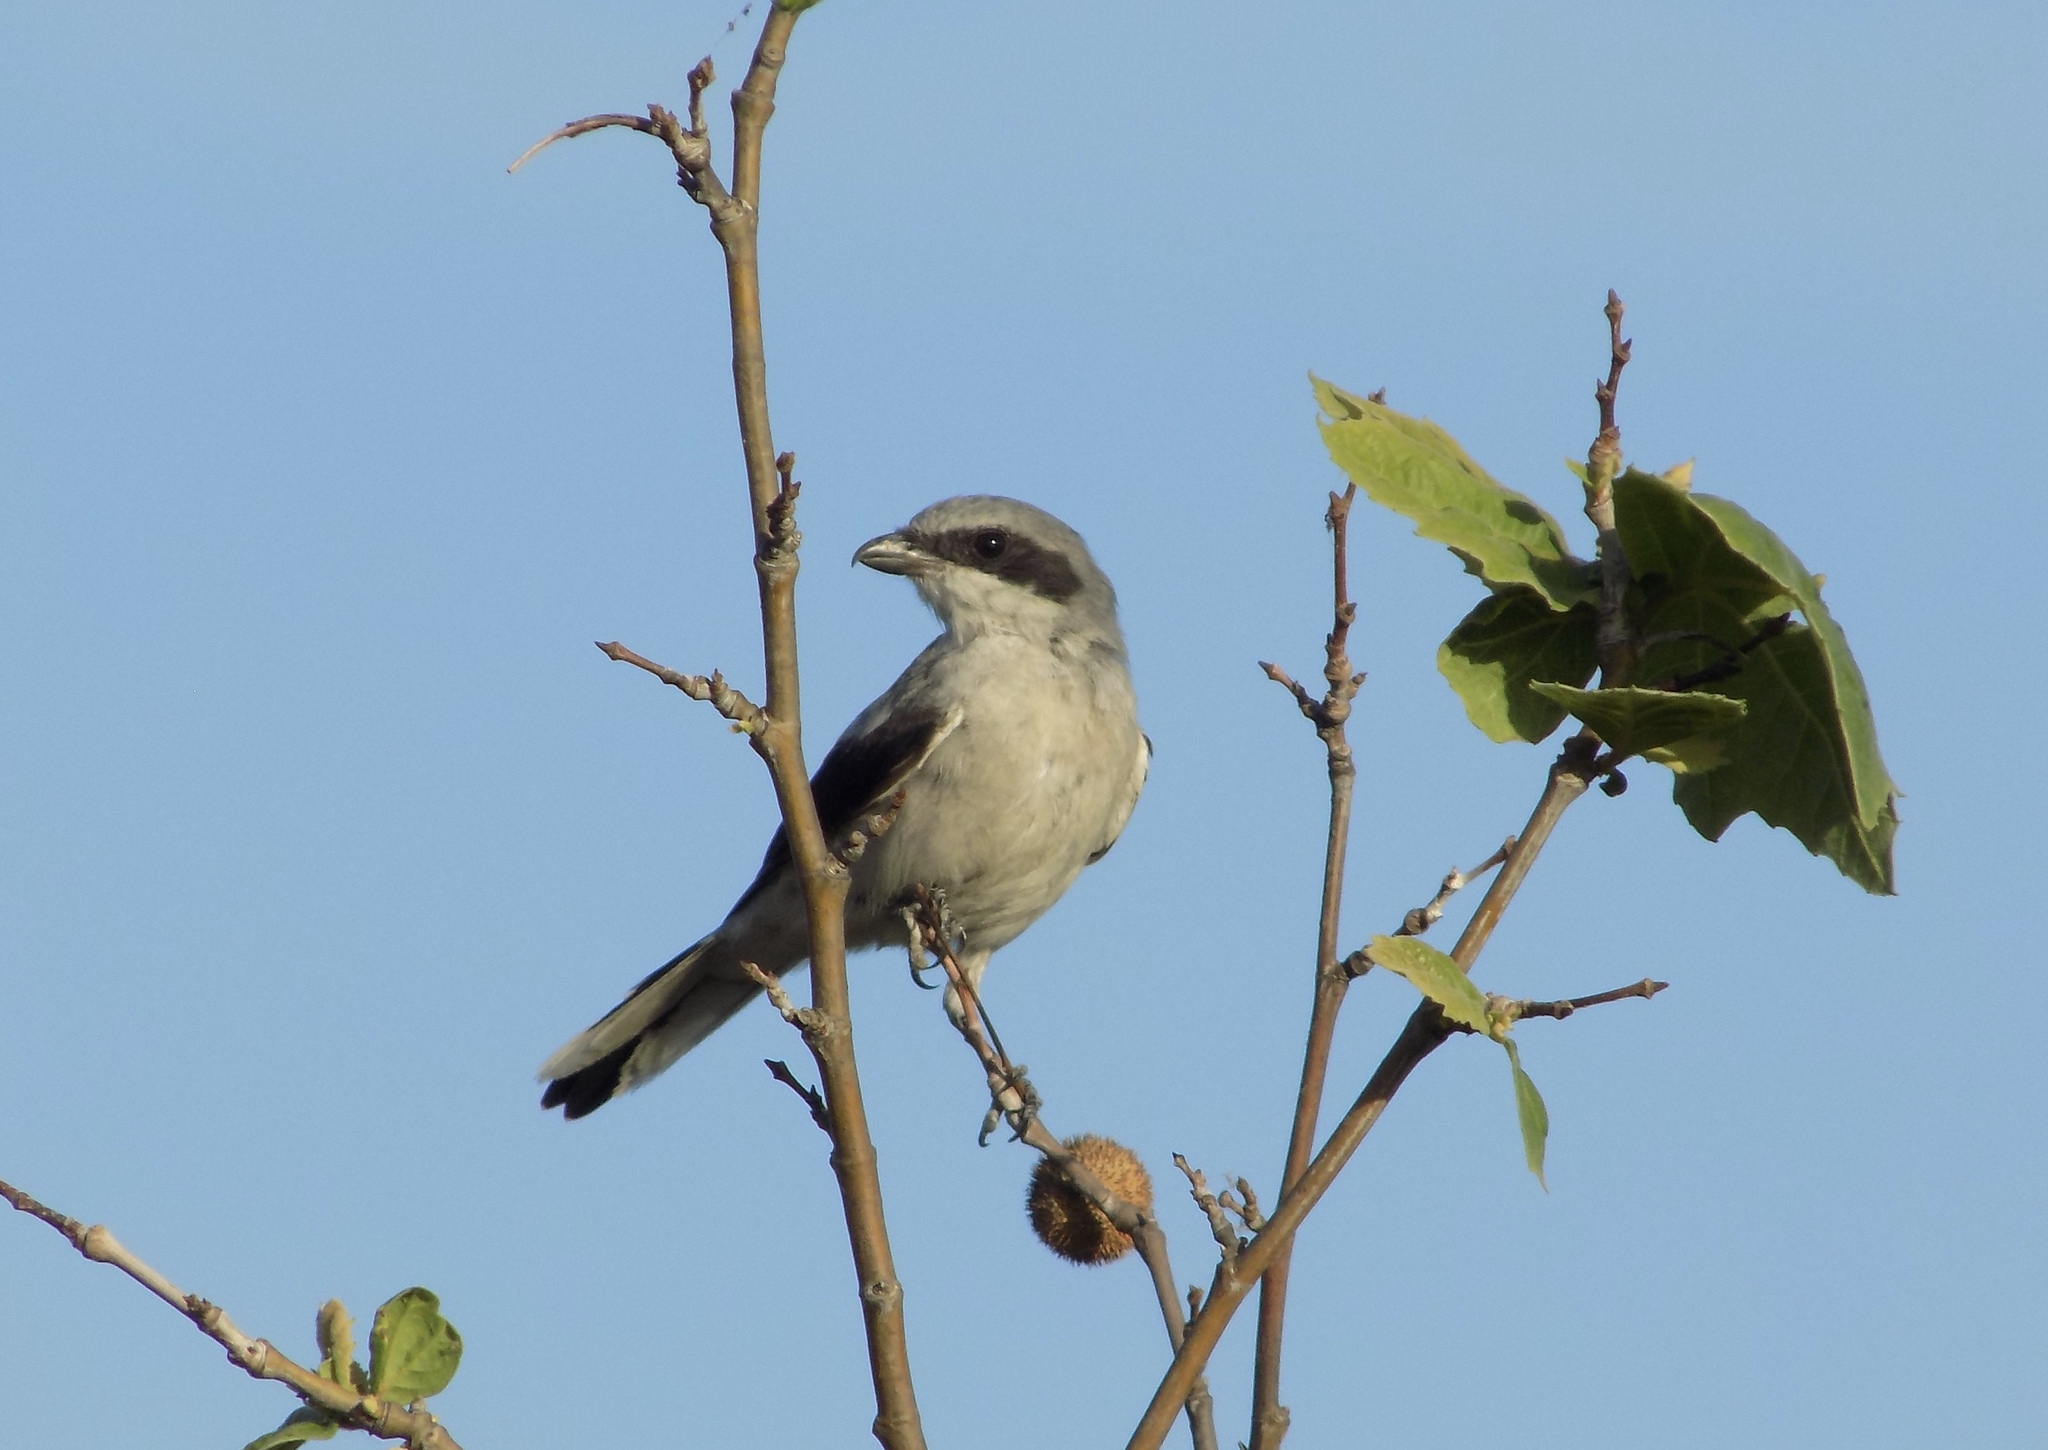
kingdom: Animalia
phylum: Chordata
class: Aves
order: Passeriformes
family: Laniidae
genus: Lanius
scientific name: Lanius ludovicianus
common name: Loggerhead shrike
